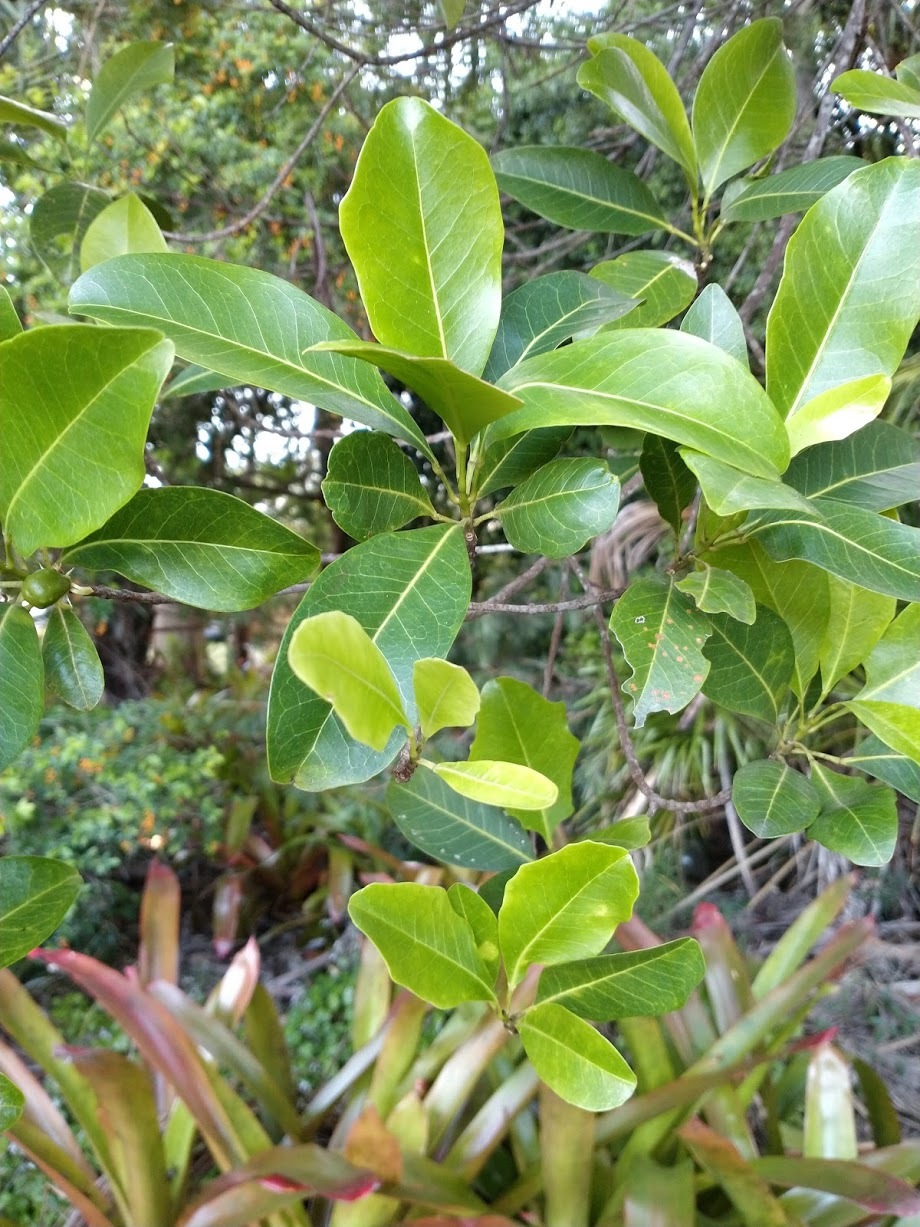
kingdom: Plantae
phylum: Tracheophyta
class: Magnoliopsida
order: Sapindales
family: Rutaceae
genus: Acronychia
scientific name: Acronychia imperforata
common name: Beach acronychia
